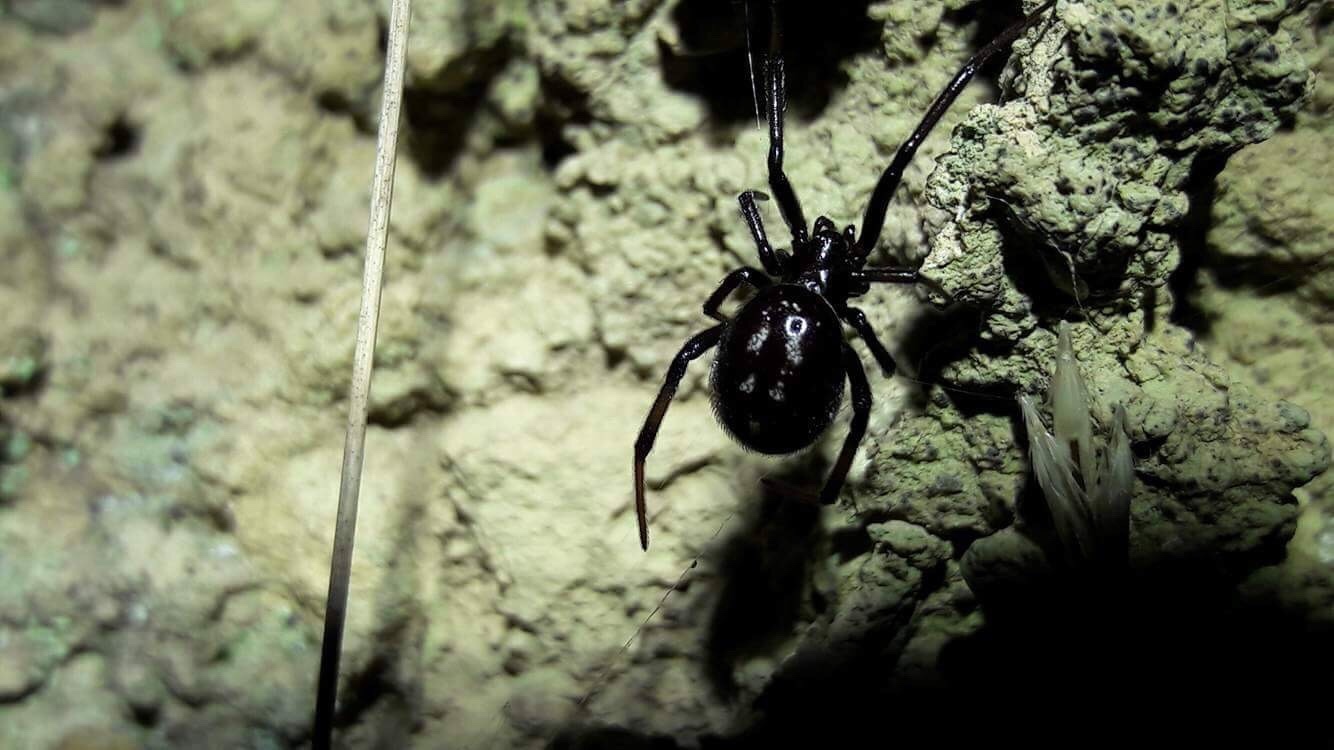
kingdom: Animalia
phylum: Arthropoda
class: Arachnida
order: Araneae
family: Theridiidae
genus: Steatoda
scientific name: Steatoda capensis
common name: Cobweb weaver
